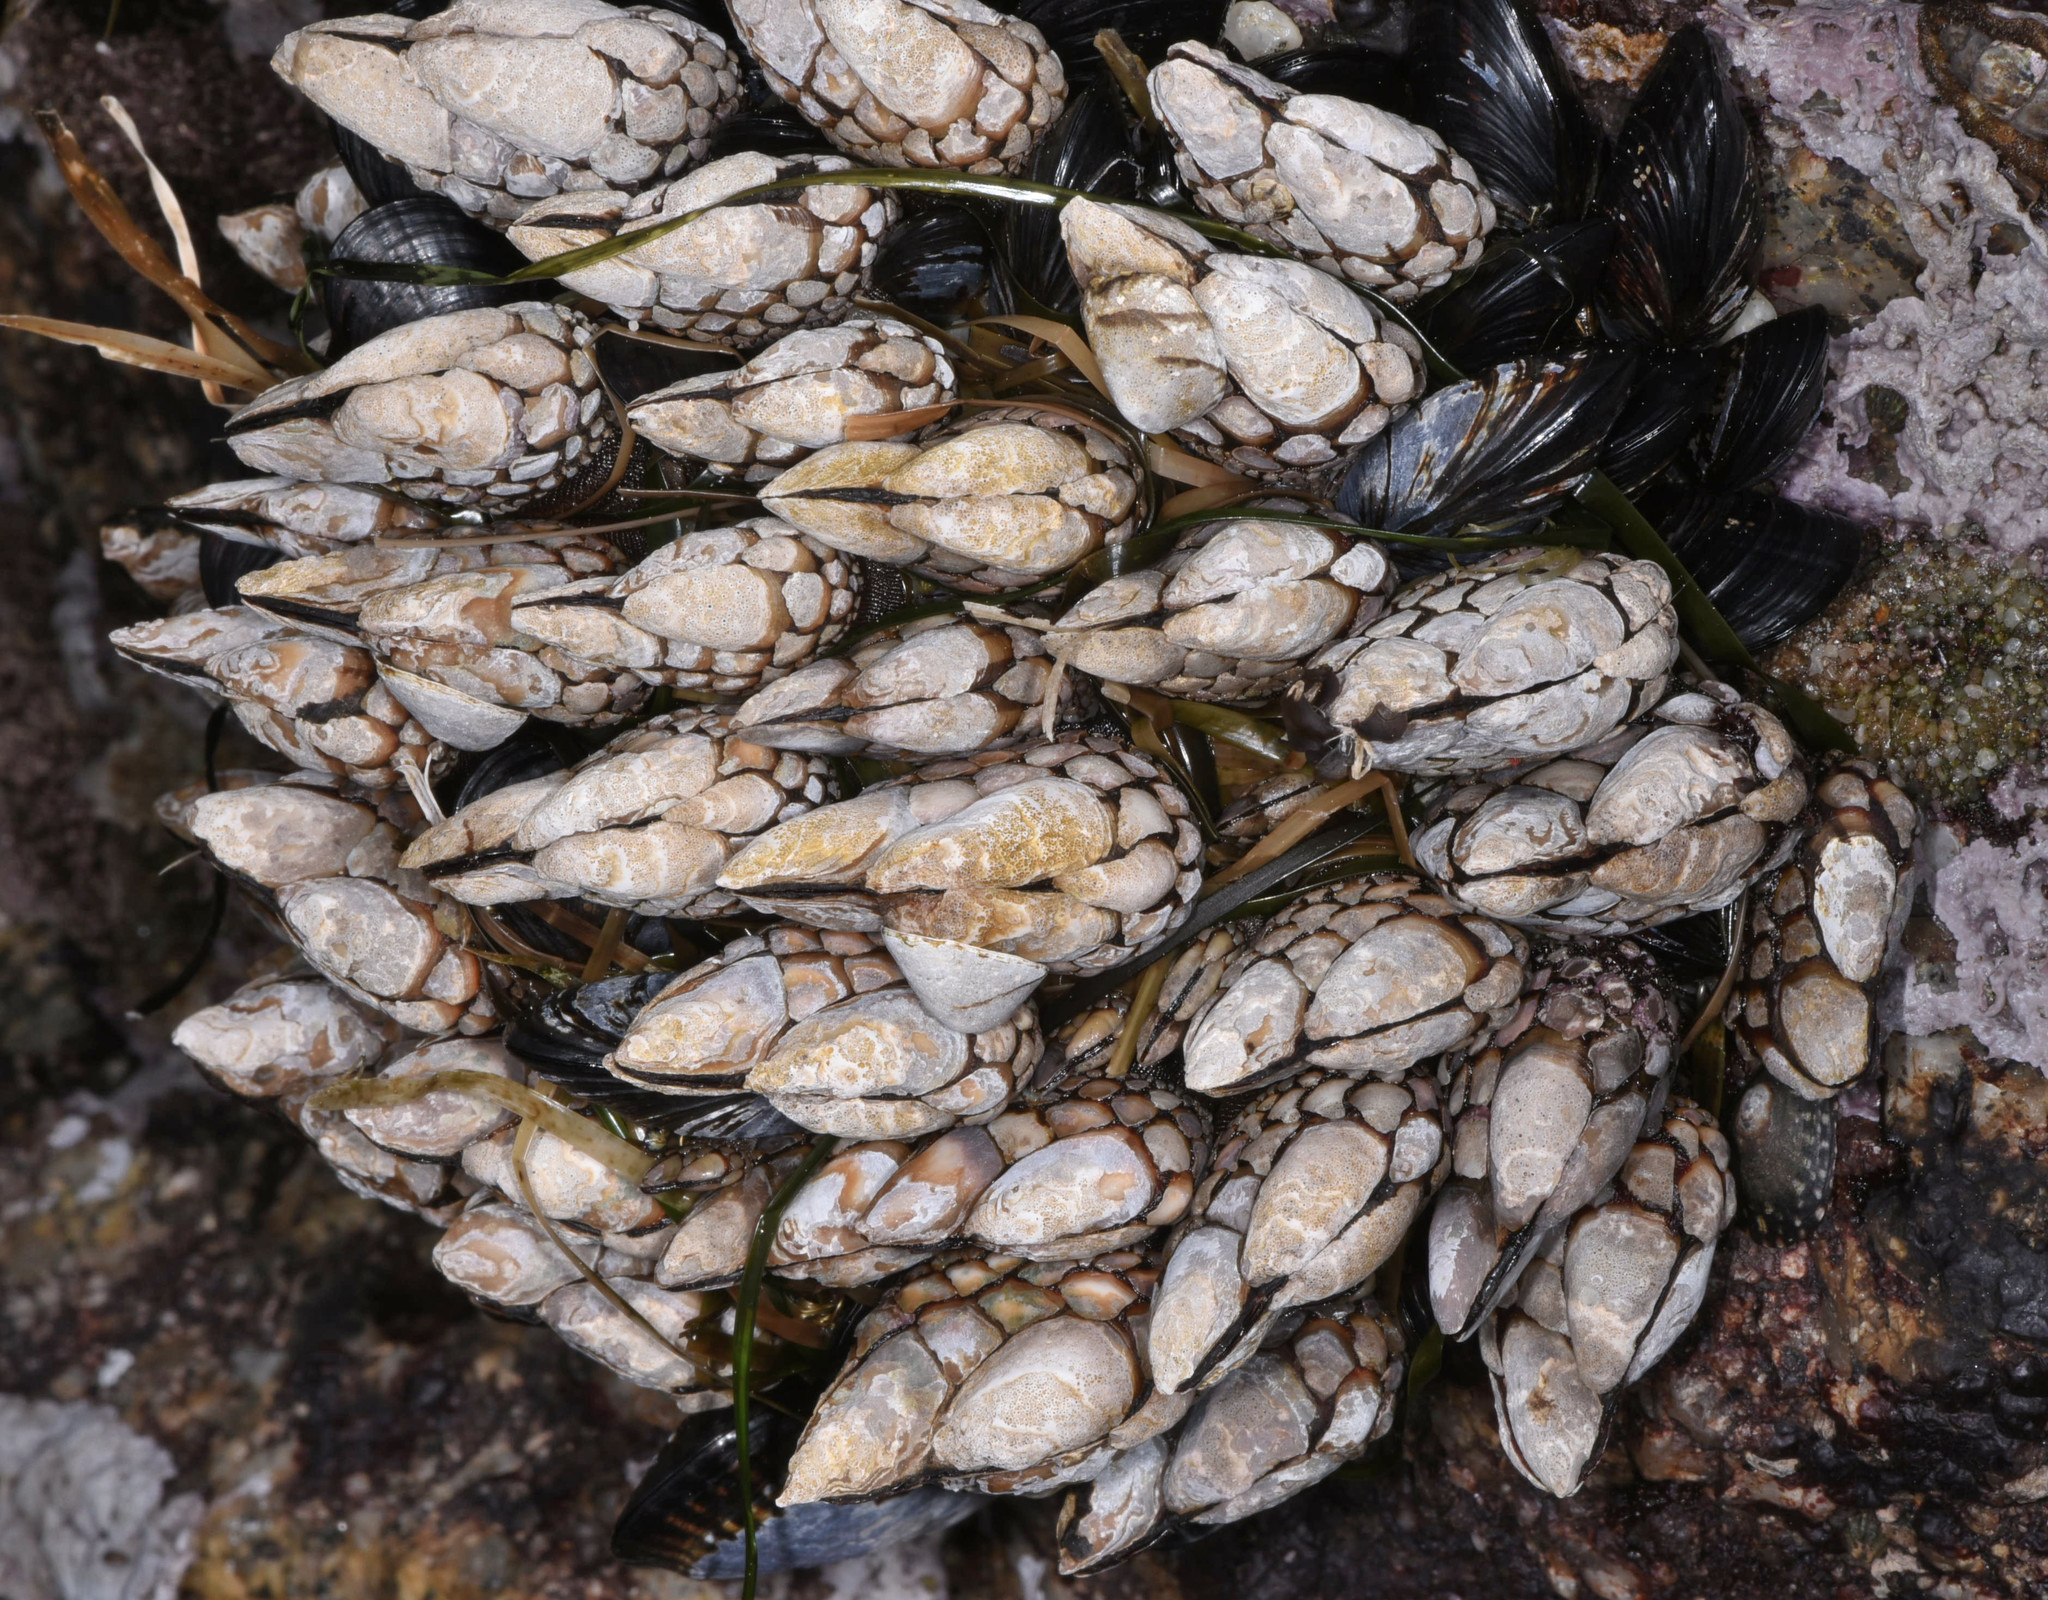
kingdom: Animalia
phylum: Arthropoda
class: Maxillopoda
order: Pedunculata
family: Pollicipedidae
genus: Pollicipes
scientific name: Pollicipes polymerus
